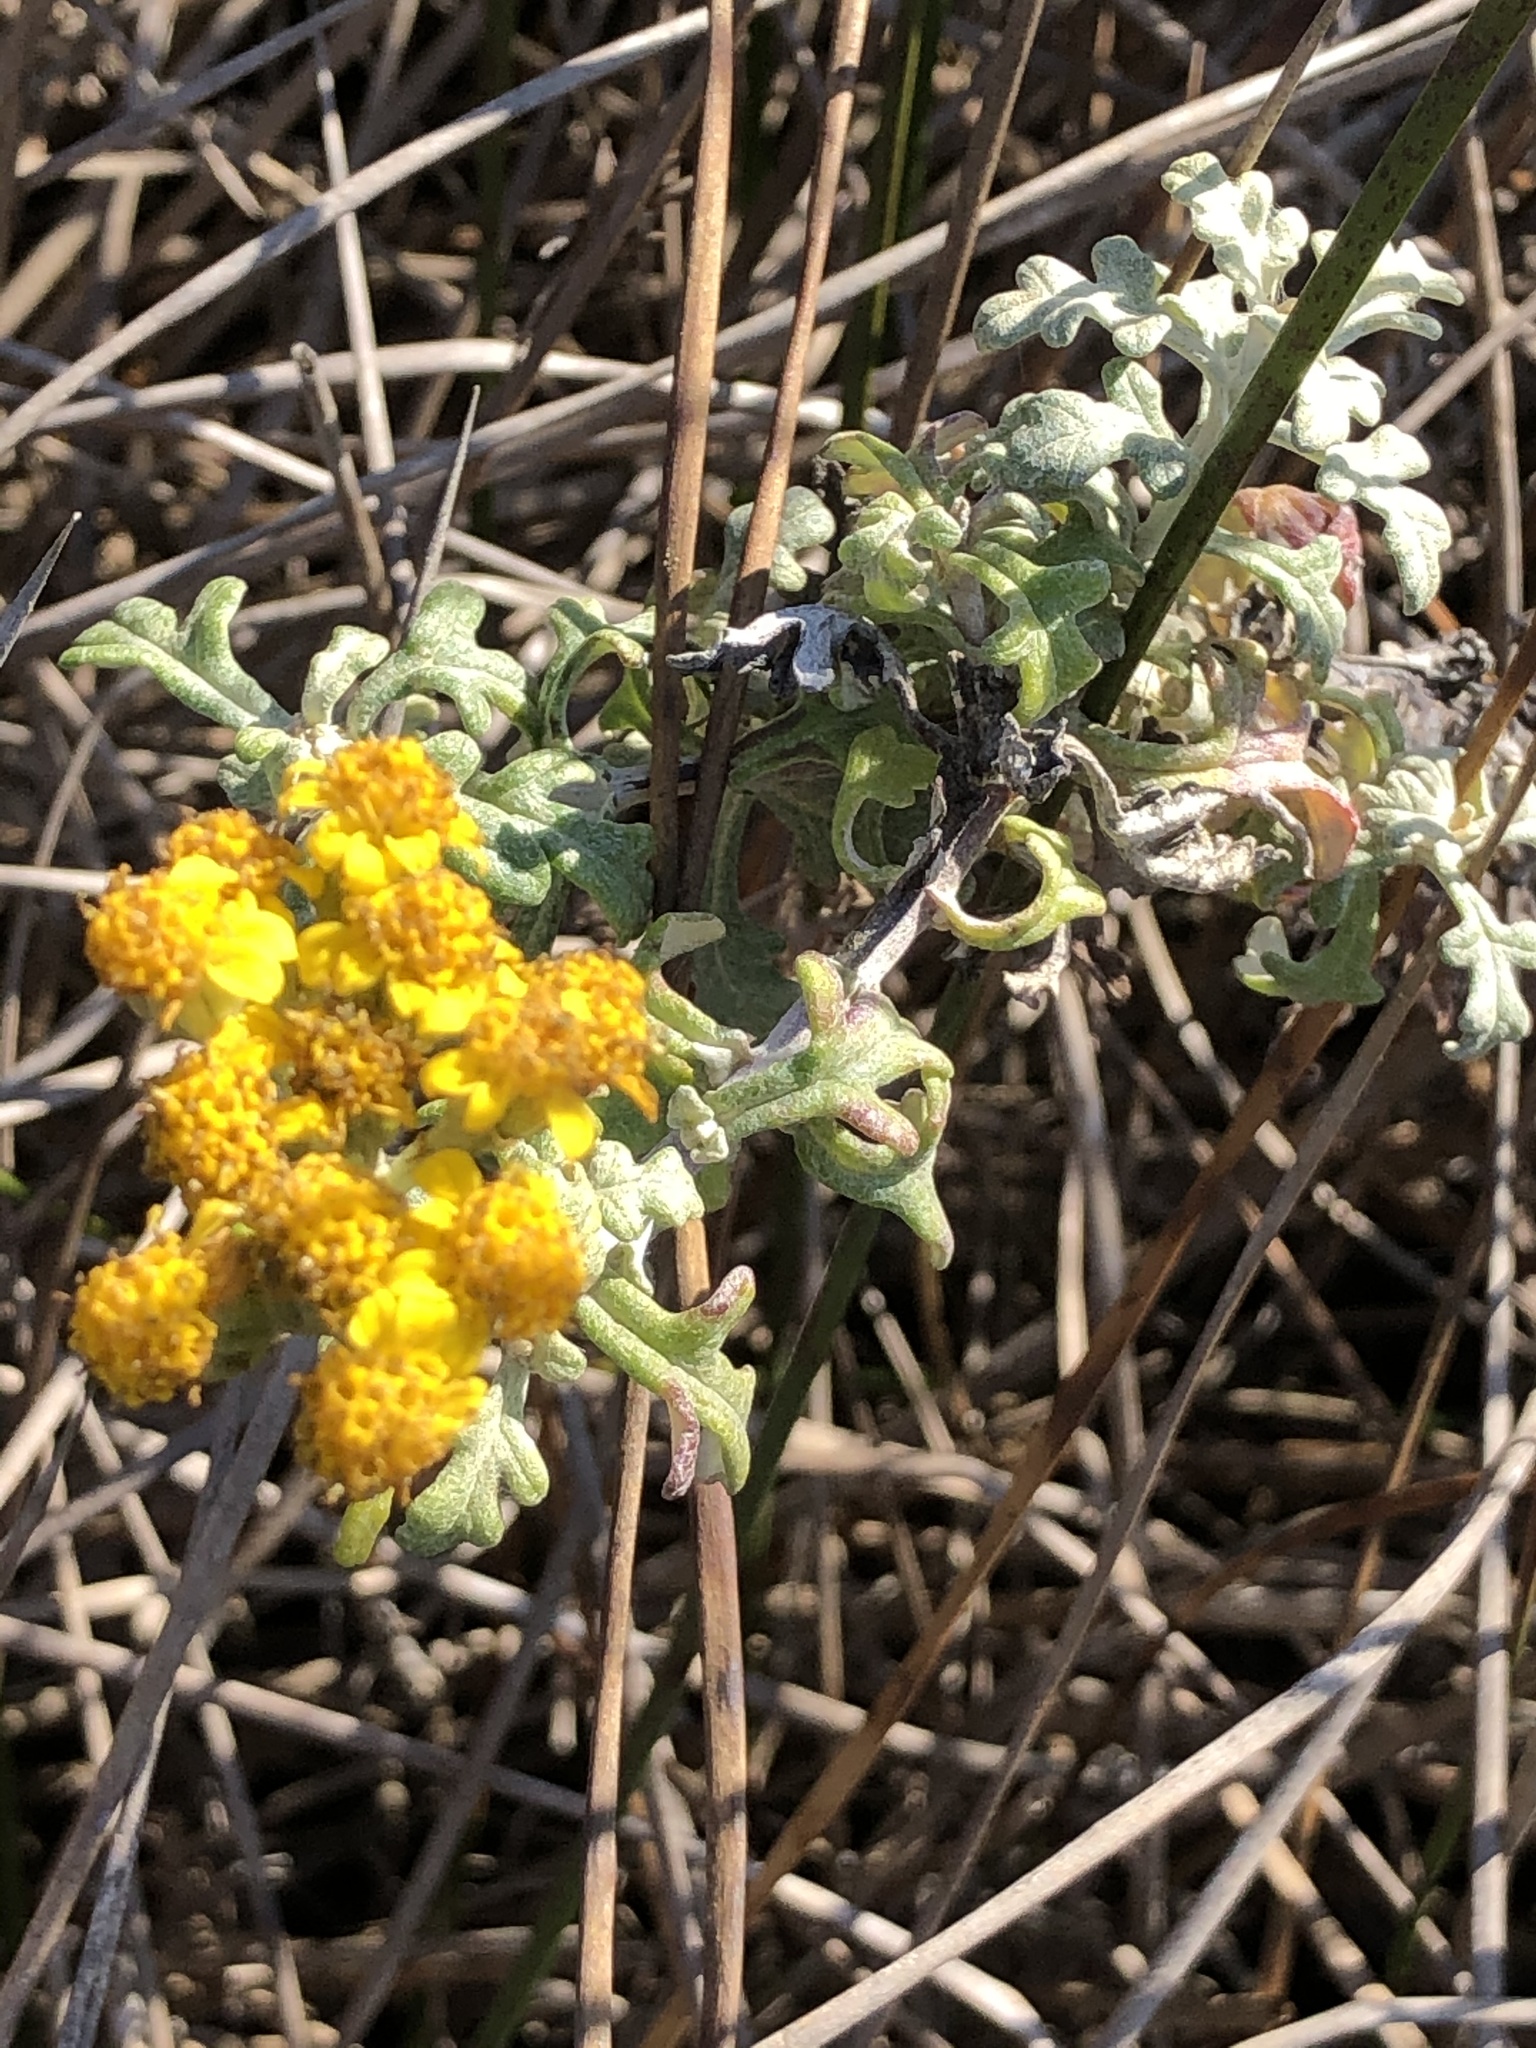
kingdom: Plantae
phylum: Tracheophyta
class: Magnoliopsida
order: Asterales
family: Asteraceae
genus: Eriophyllum
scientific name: Eriophyllum staechadifolium
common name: Lizardtail
